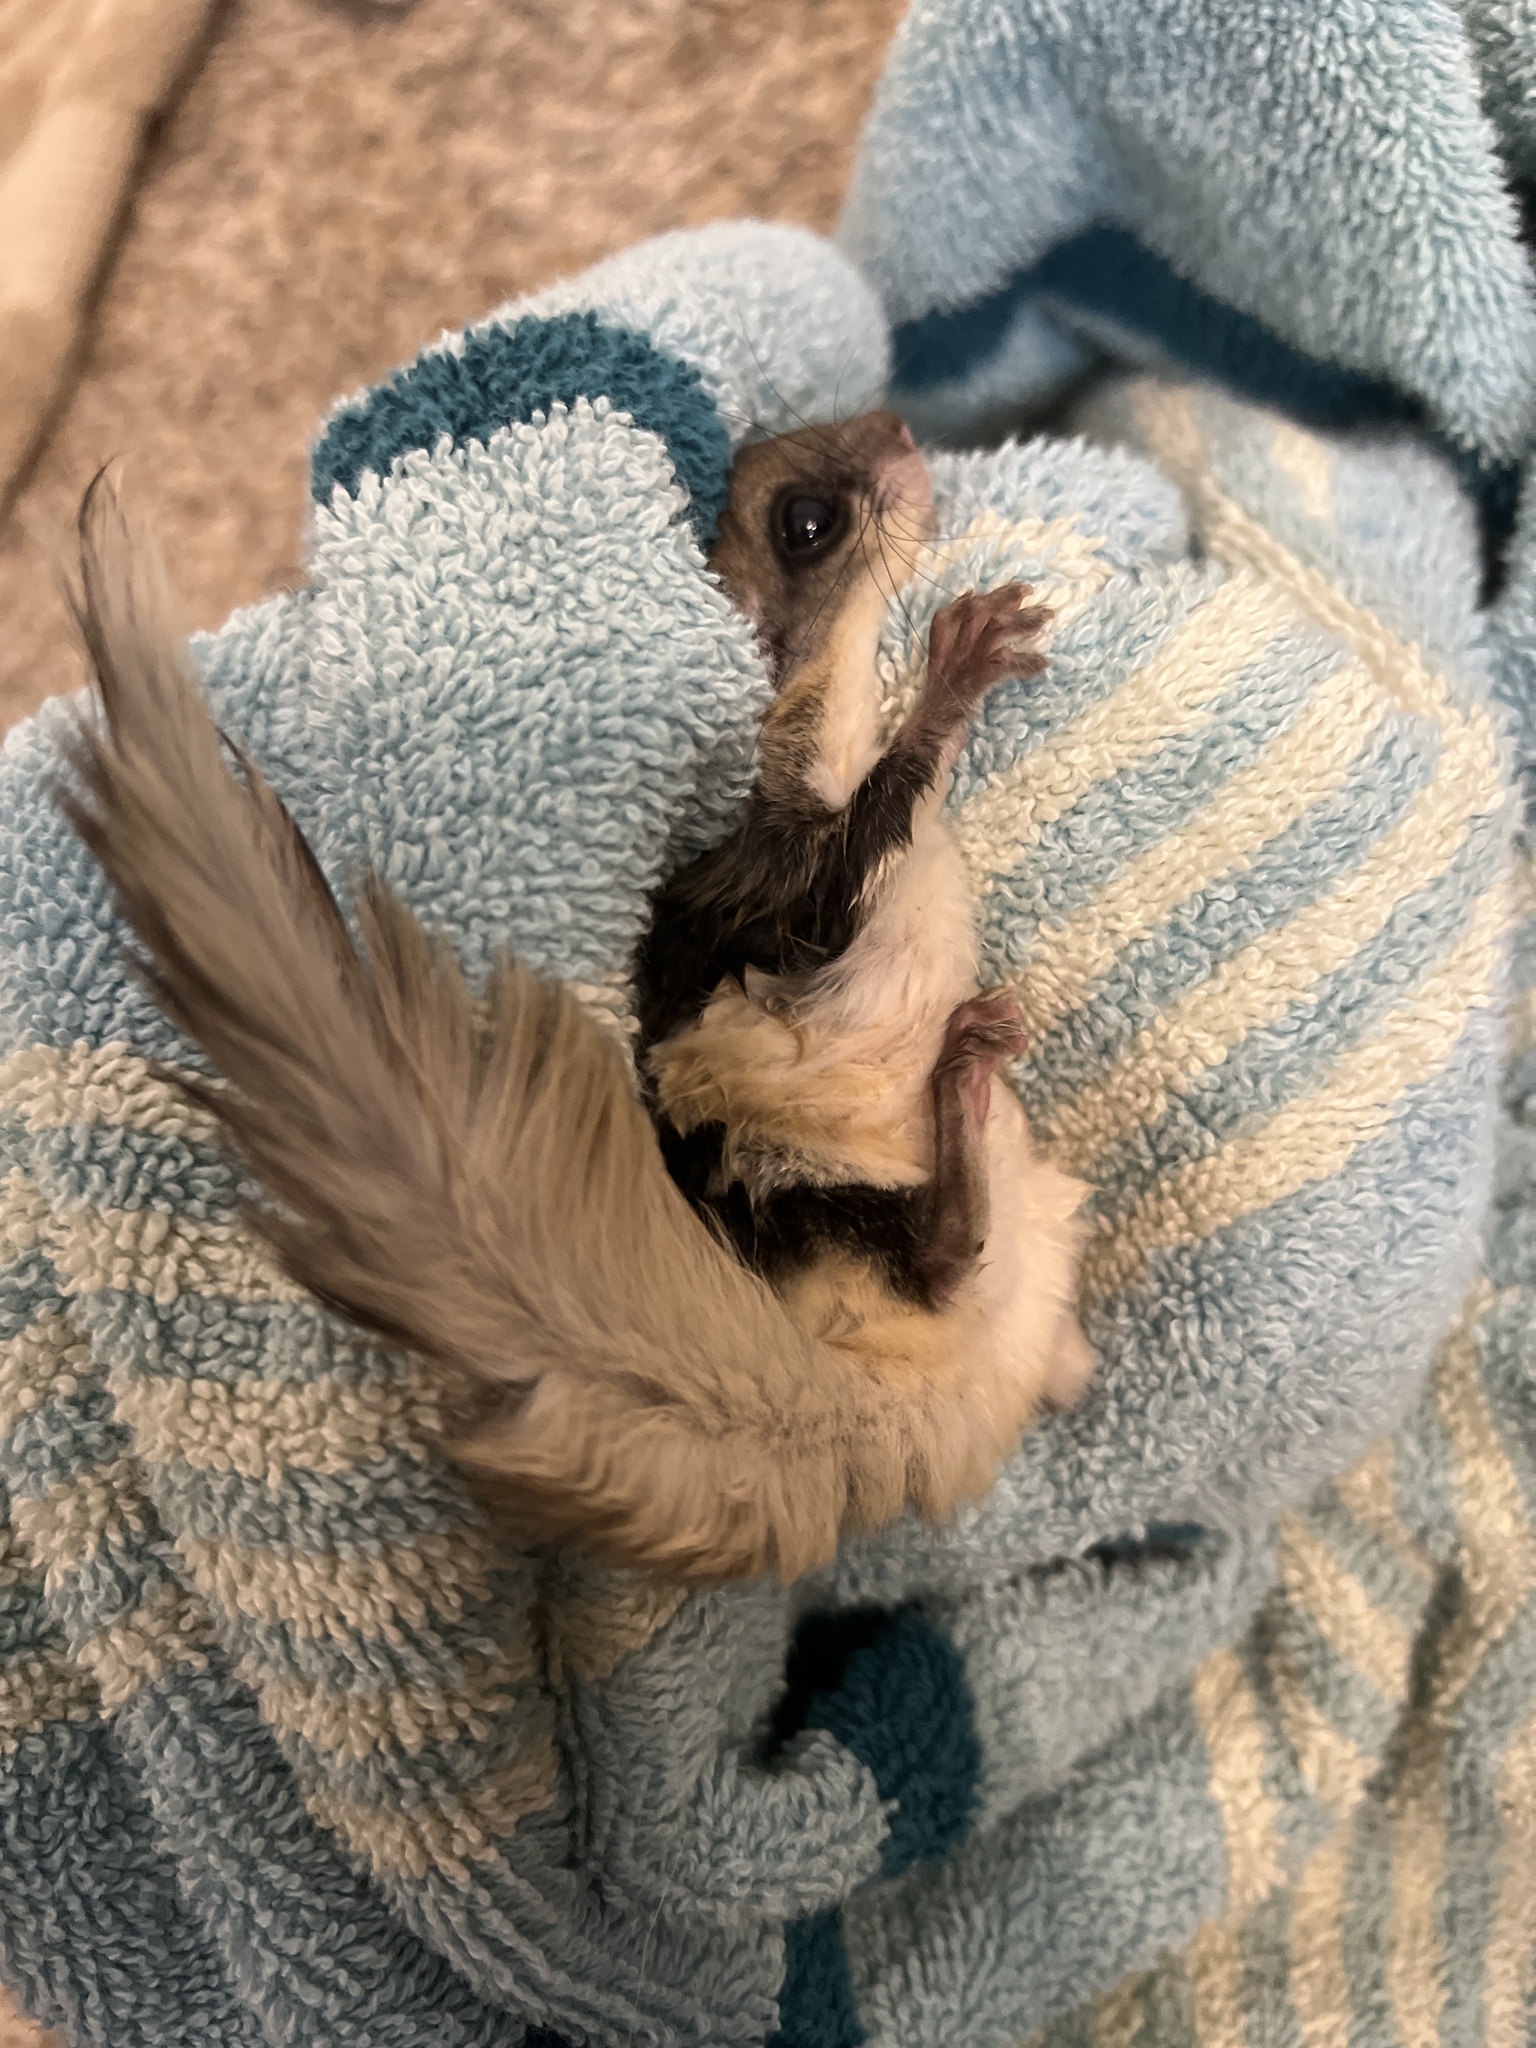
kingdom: Animalia
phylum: Chordata
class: Mammalia
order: Rodentia
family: Sciuridae
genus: Glaucomys
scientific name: Glaucomys volans
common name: Southern flying squirrel
